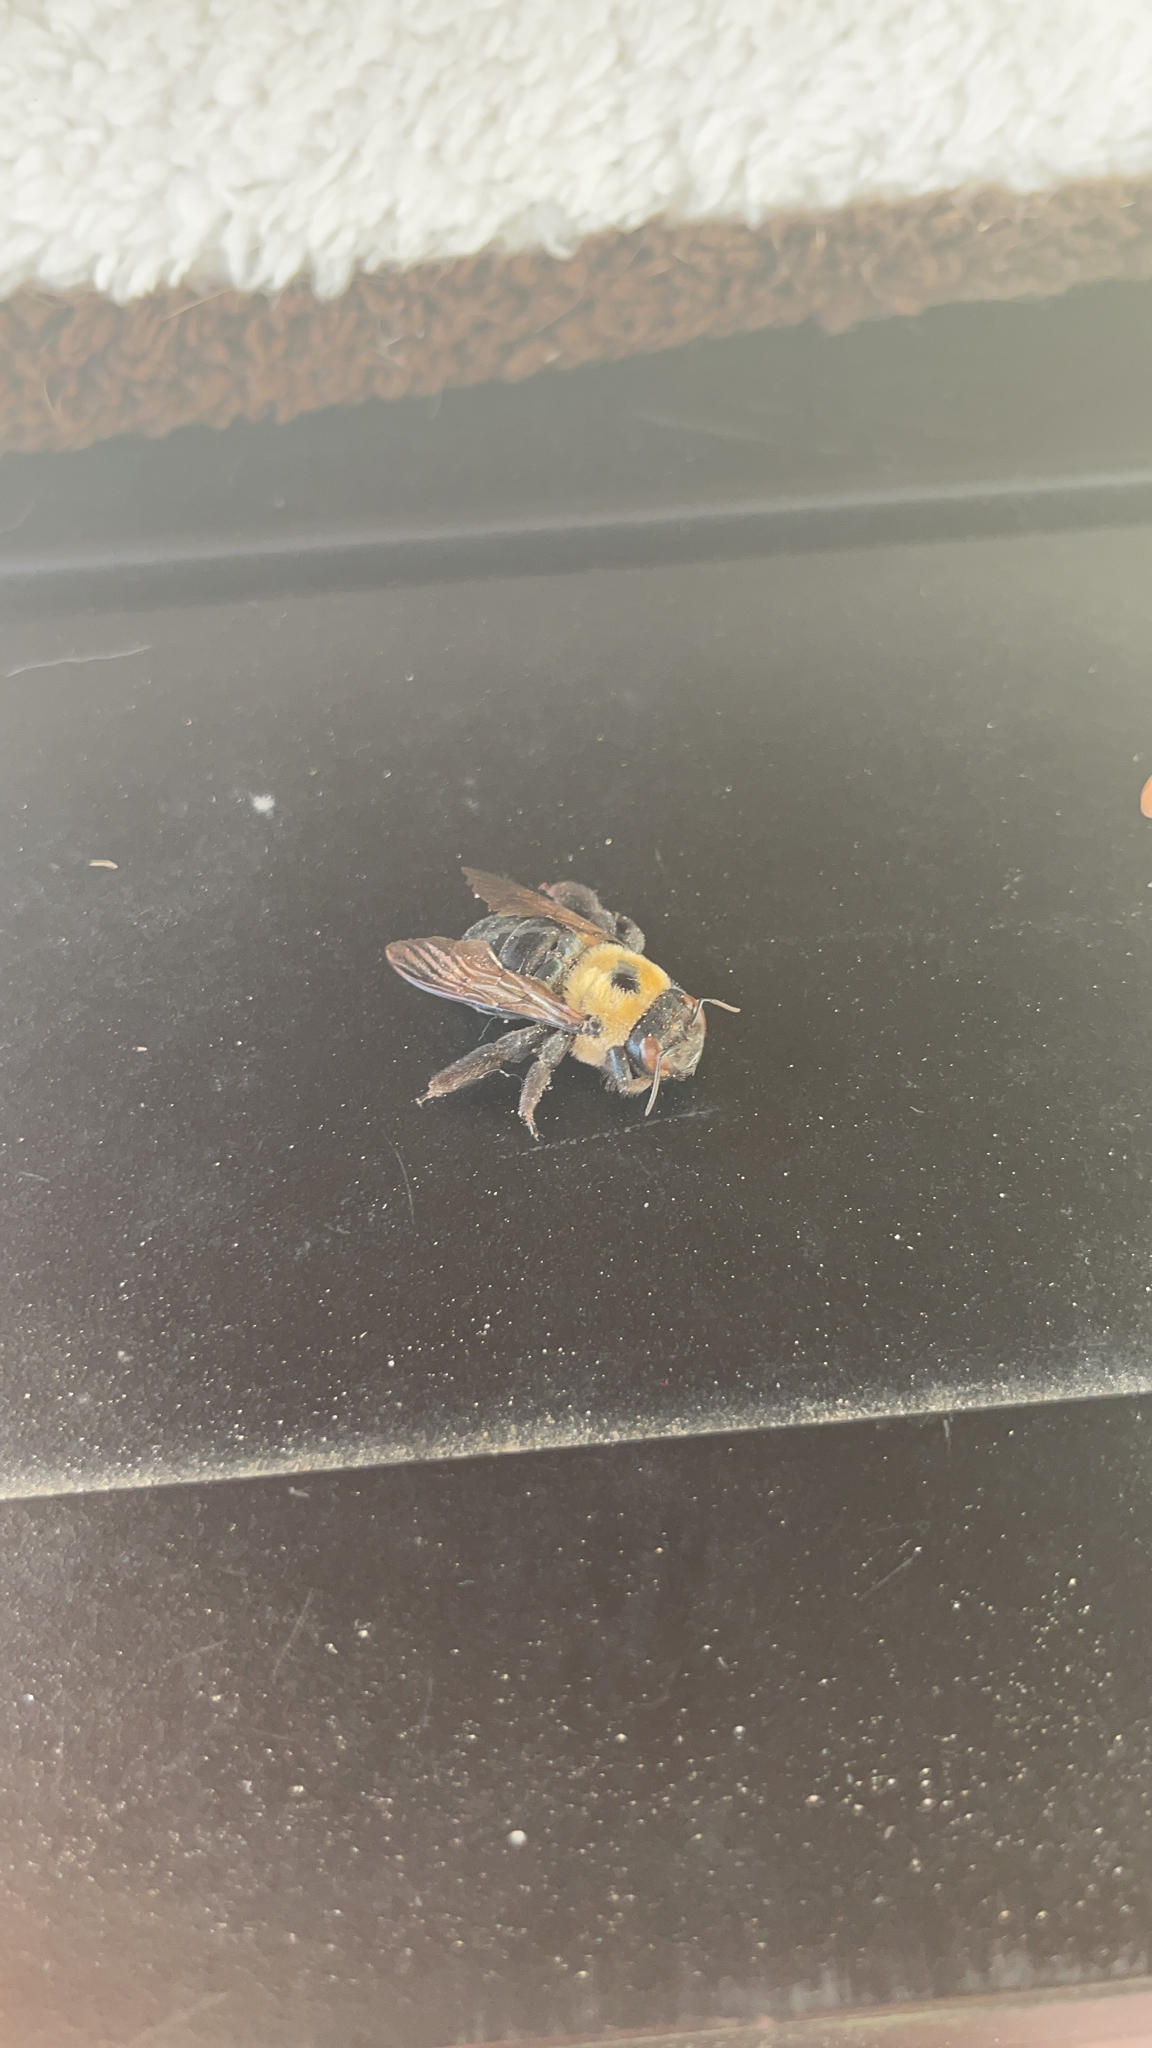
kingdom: Animalia
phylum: Arthropoda
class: Insecta
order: Hymenoptera
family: Apidae
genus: Xylocopa
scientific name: Xylocopa virginica
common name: Carpenter bee
